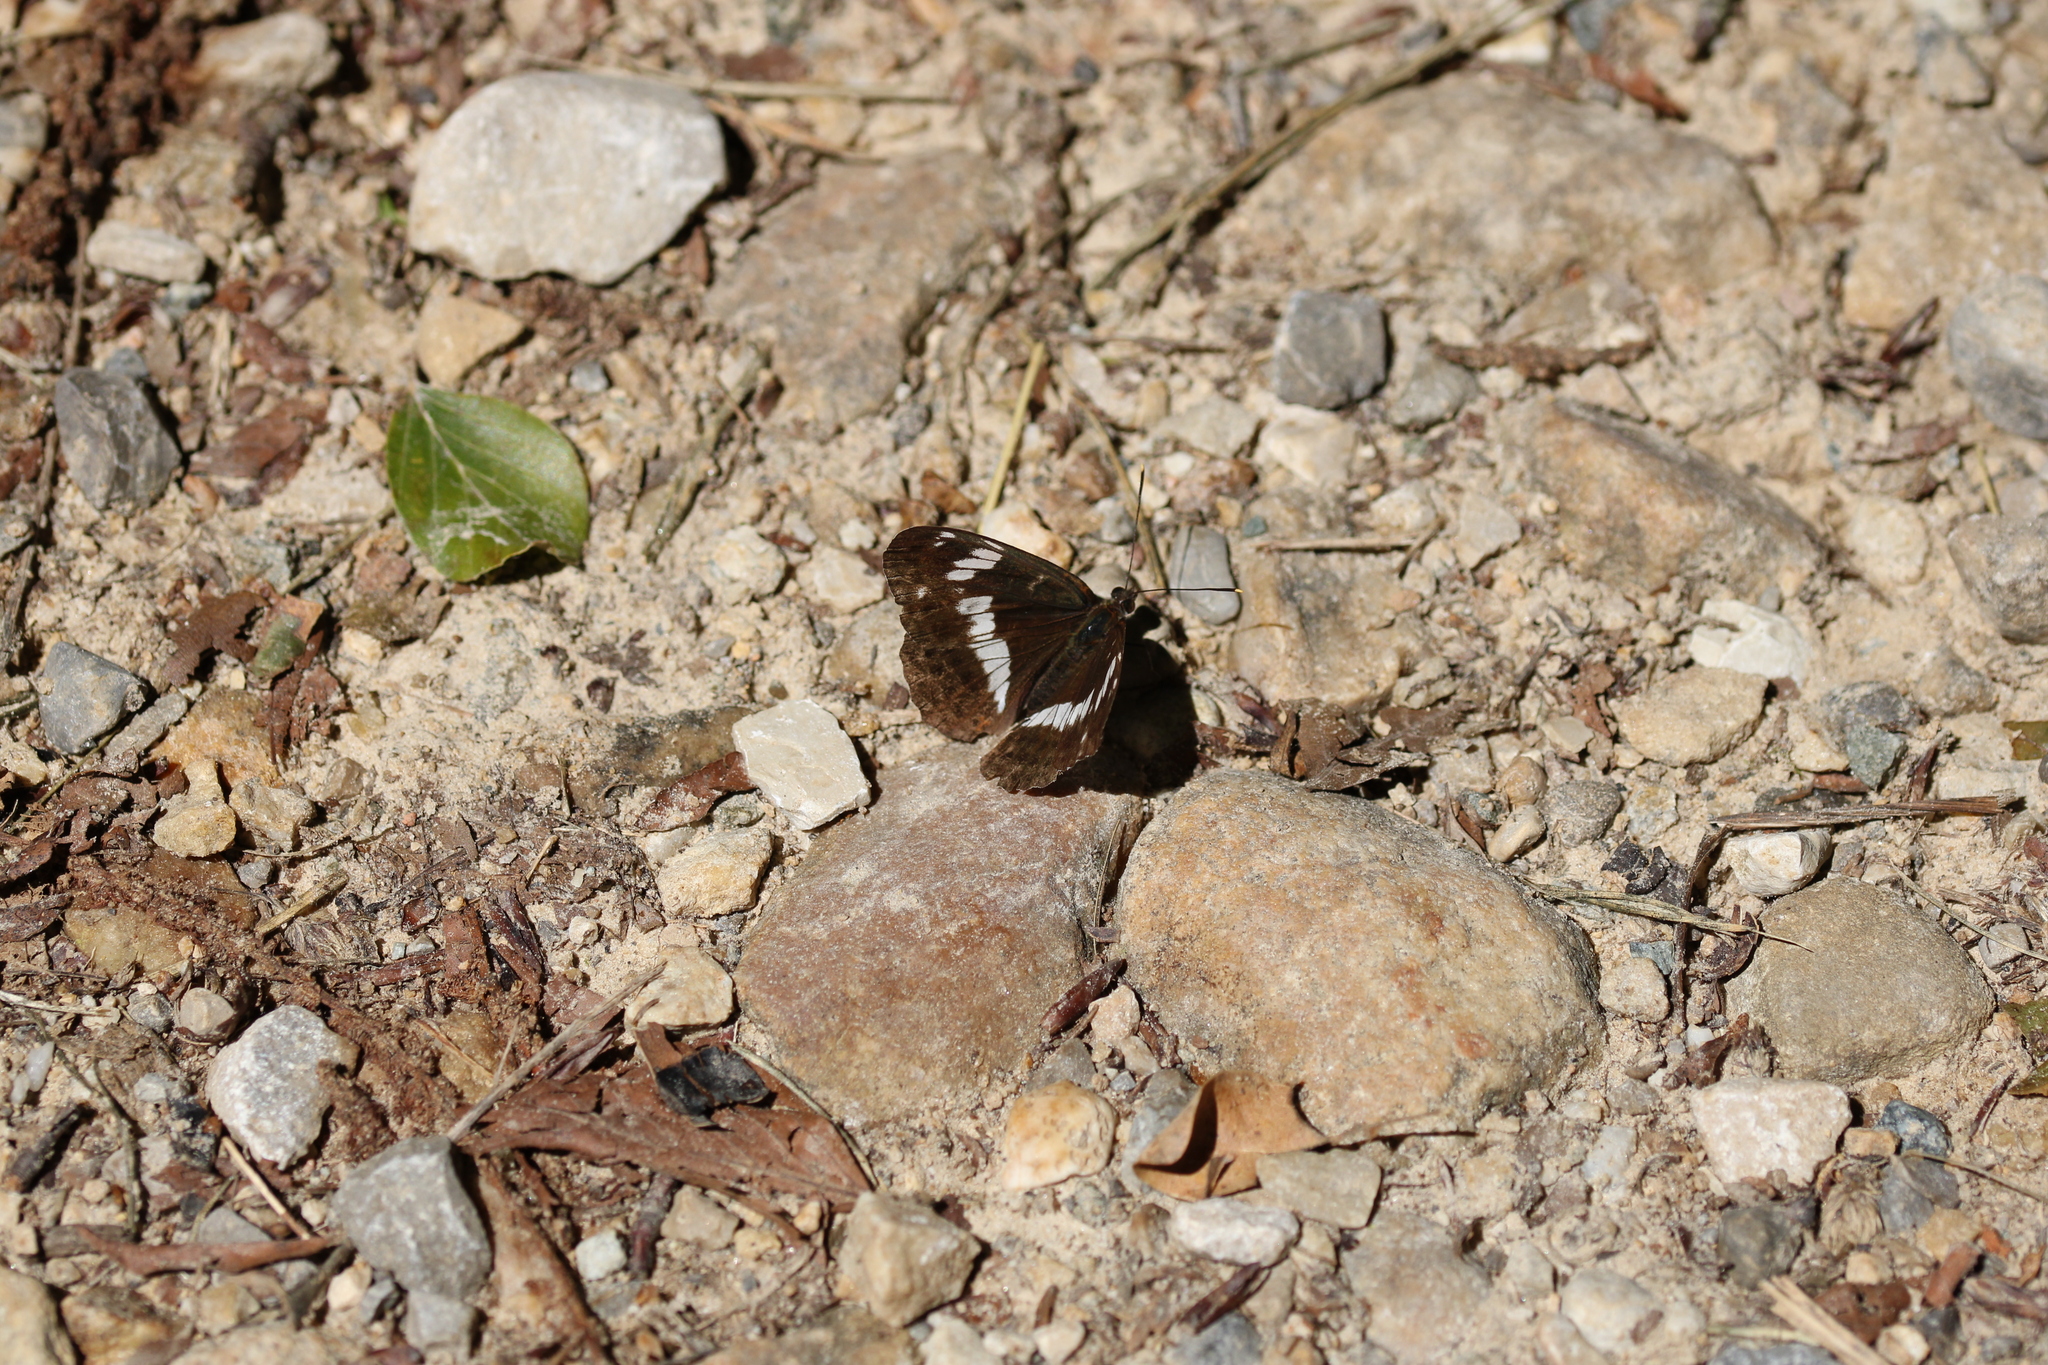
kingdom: Animalia
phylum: Arthropoda
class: Insecta
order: Lepidoptera
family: Nymphalidae
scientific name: Nymphalidae
